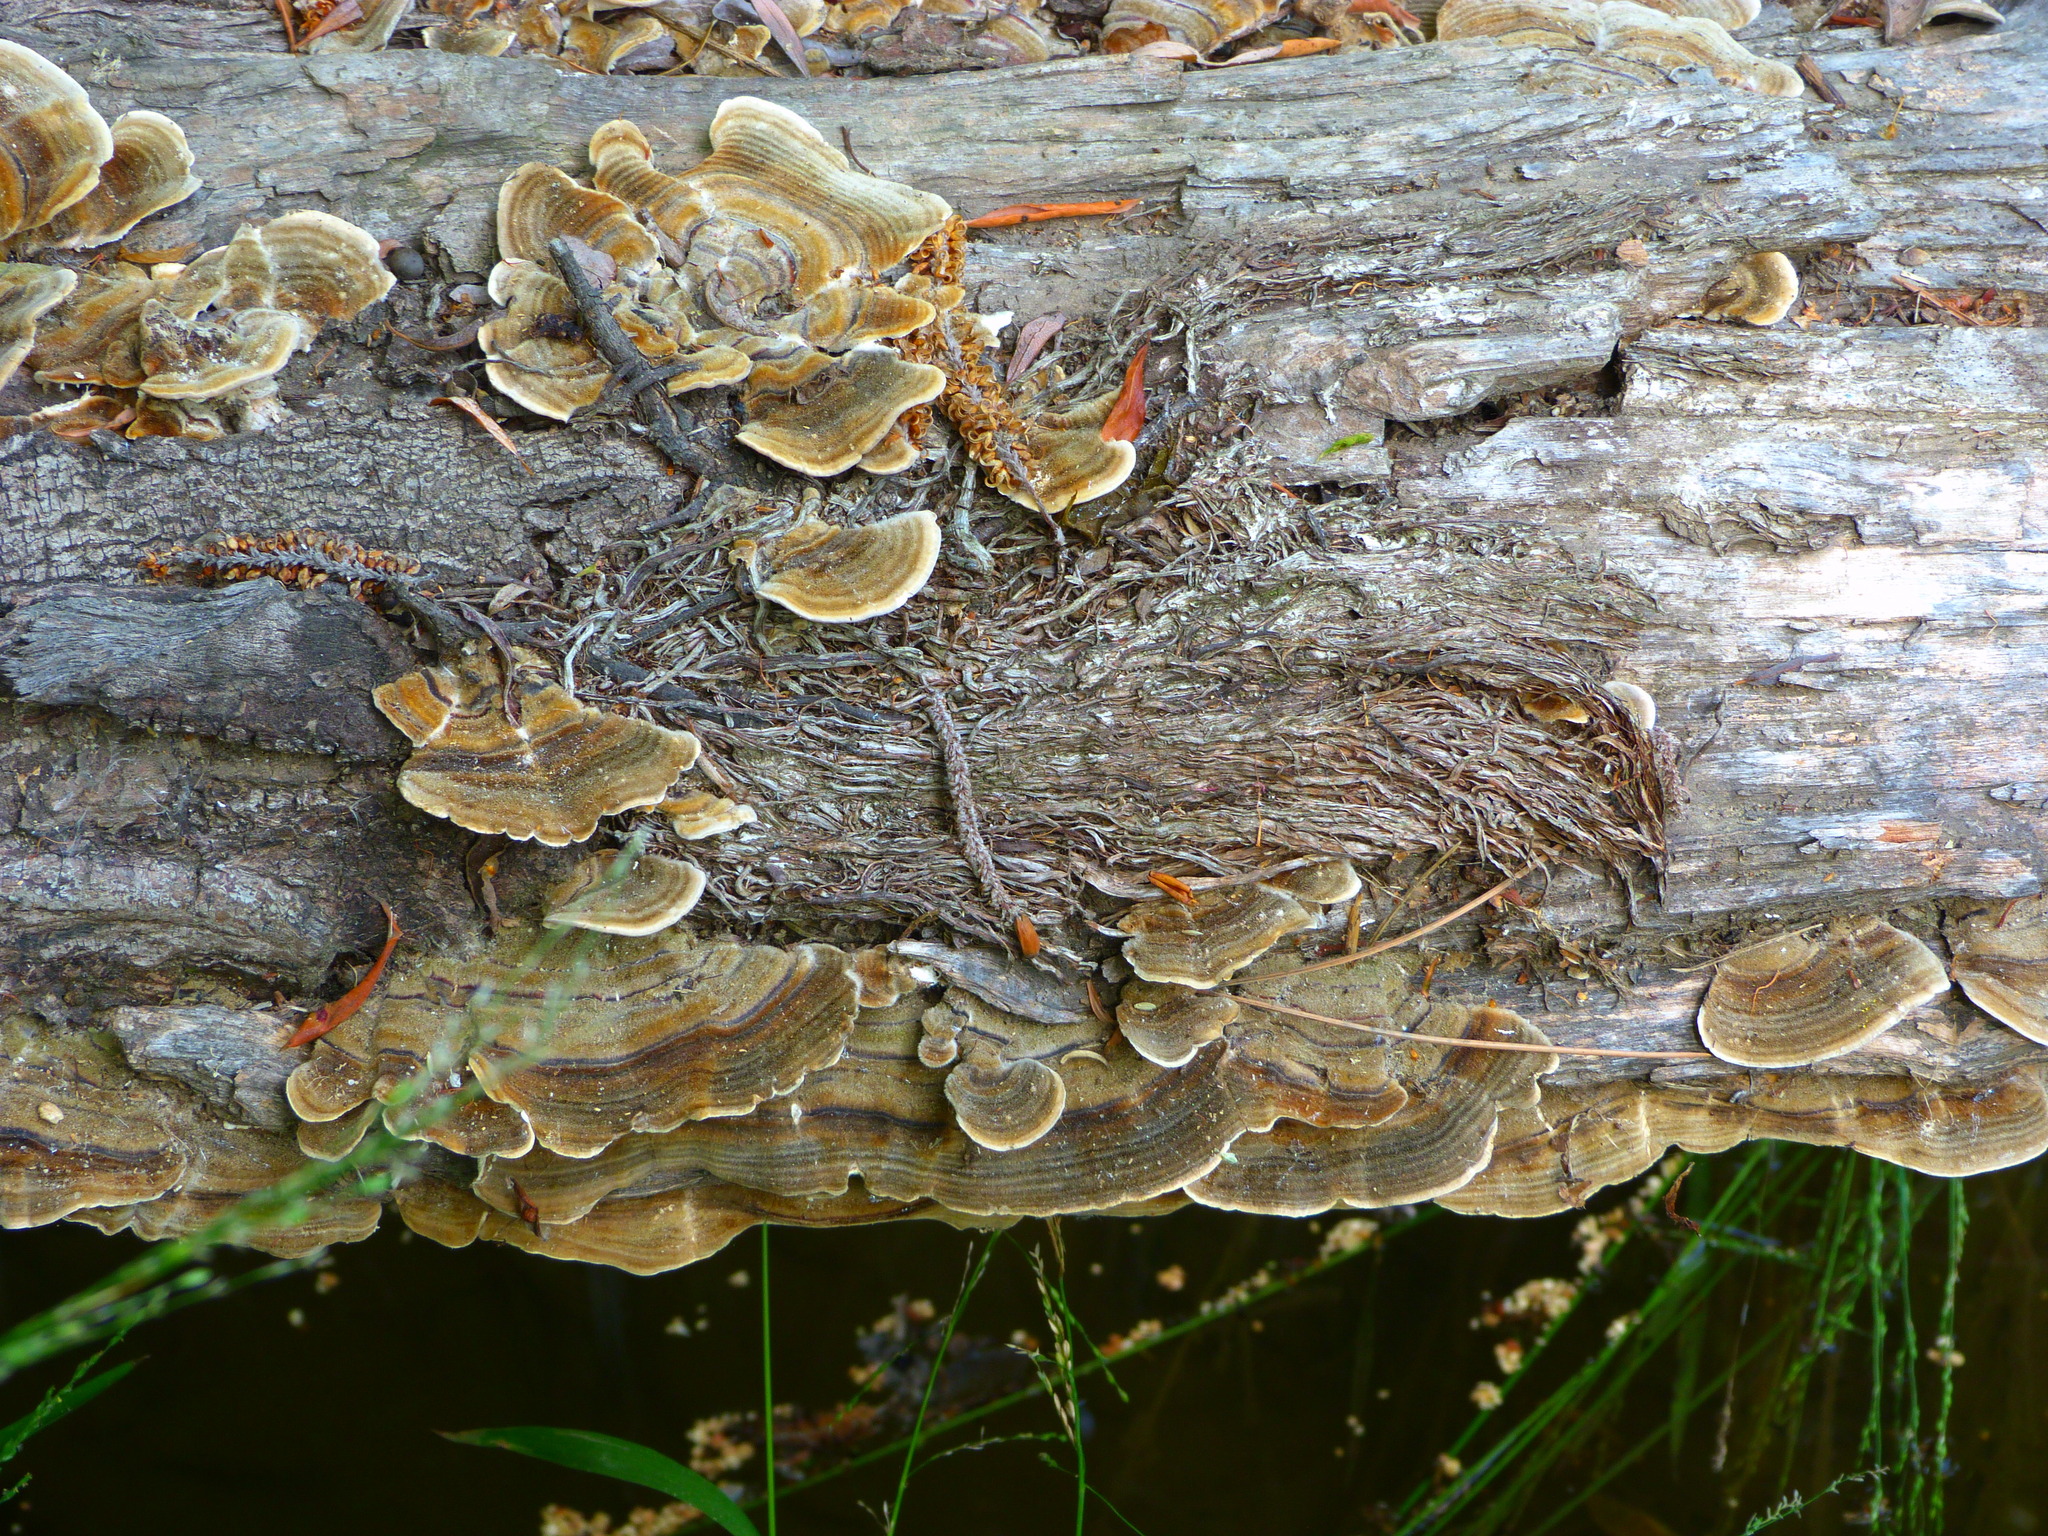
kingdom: Fungi
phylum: Basidiomycota
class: Agaricomycetes
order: Polyporales
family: Polyporaceae
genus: Trametes
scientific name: Trametes versicolor
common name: Turkeytail
